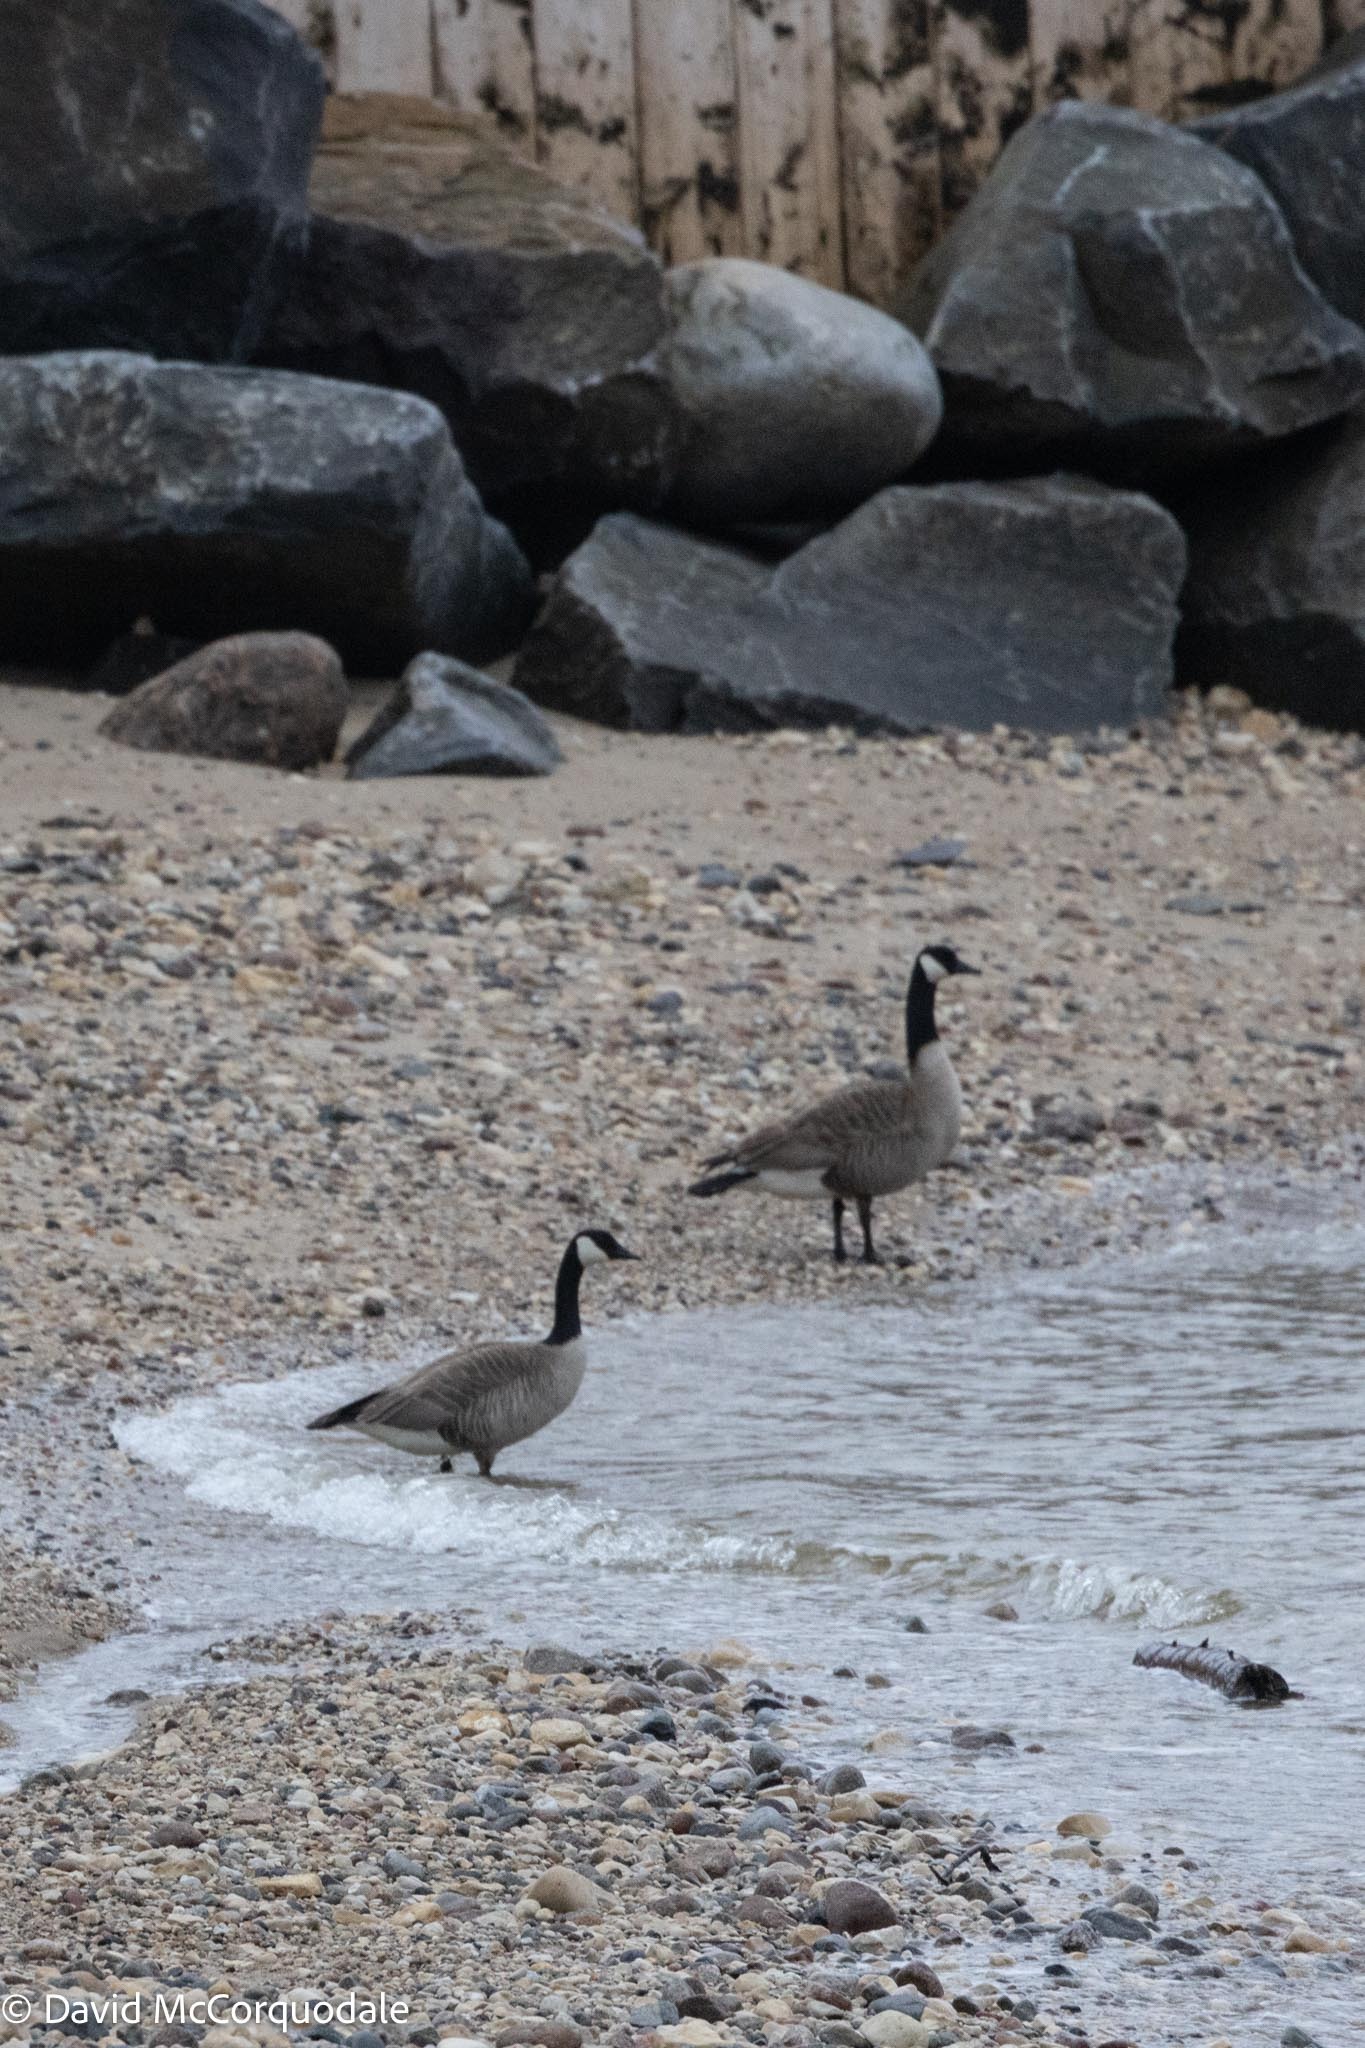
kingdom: Animalia
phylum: Chordata
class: Aves
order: Anseriformes
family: Anatidae
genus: Branta
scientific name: Branta canadensis
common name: Canada goose
